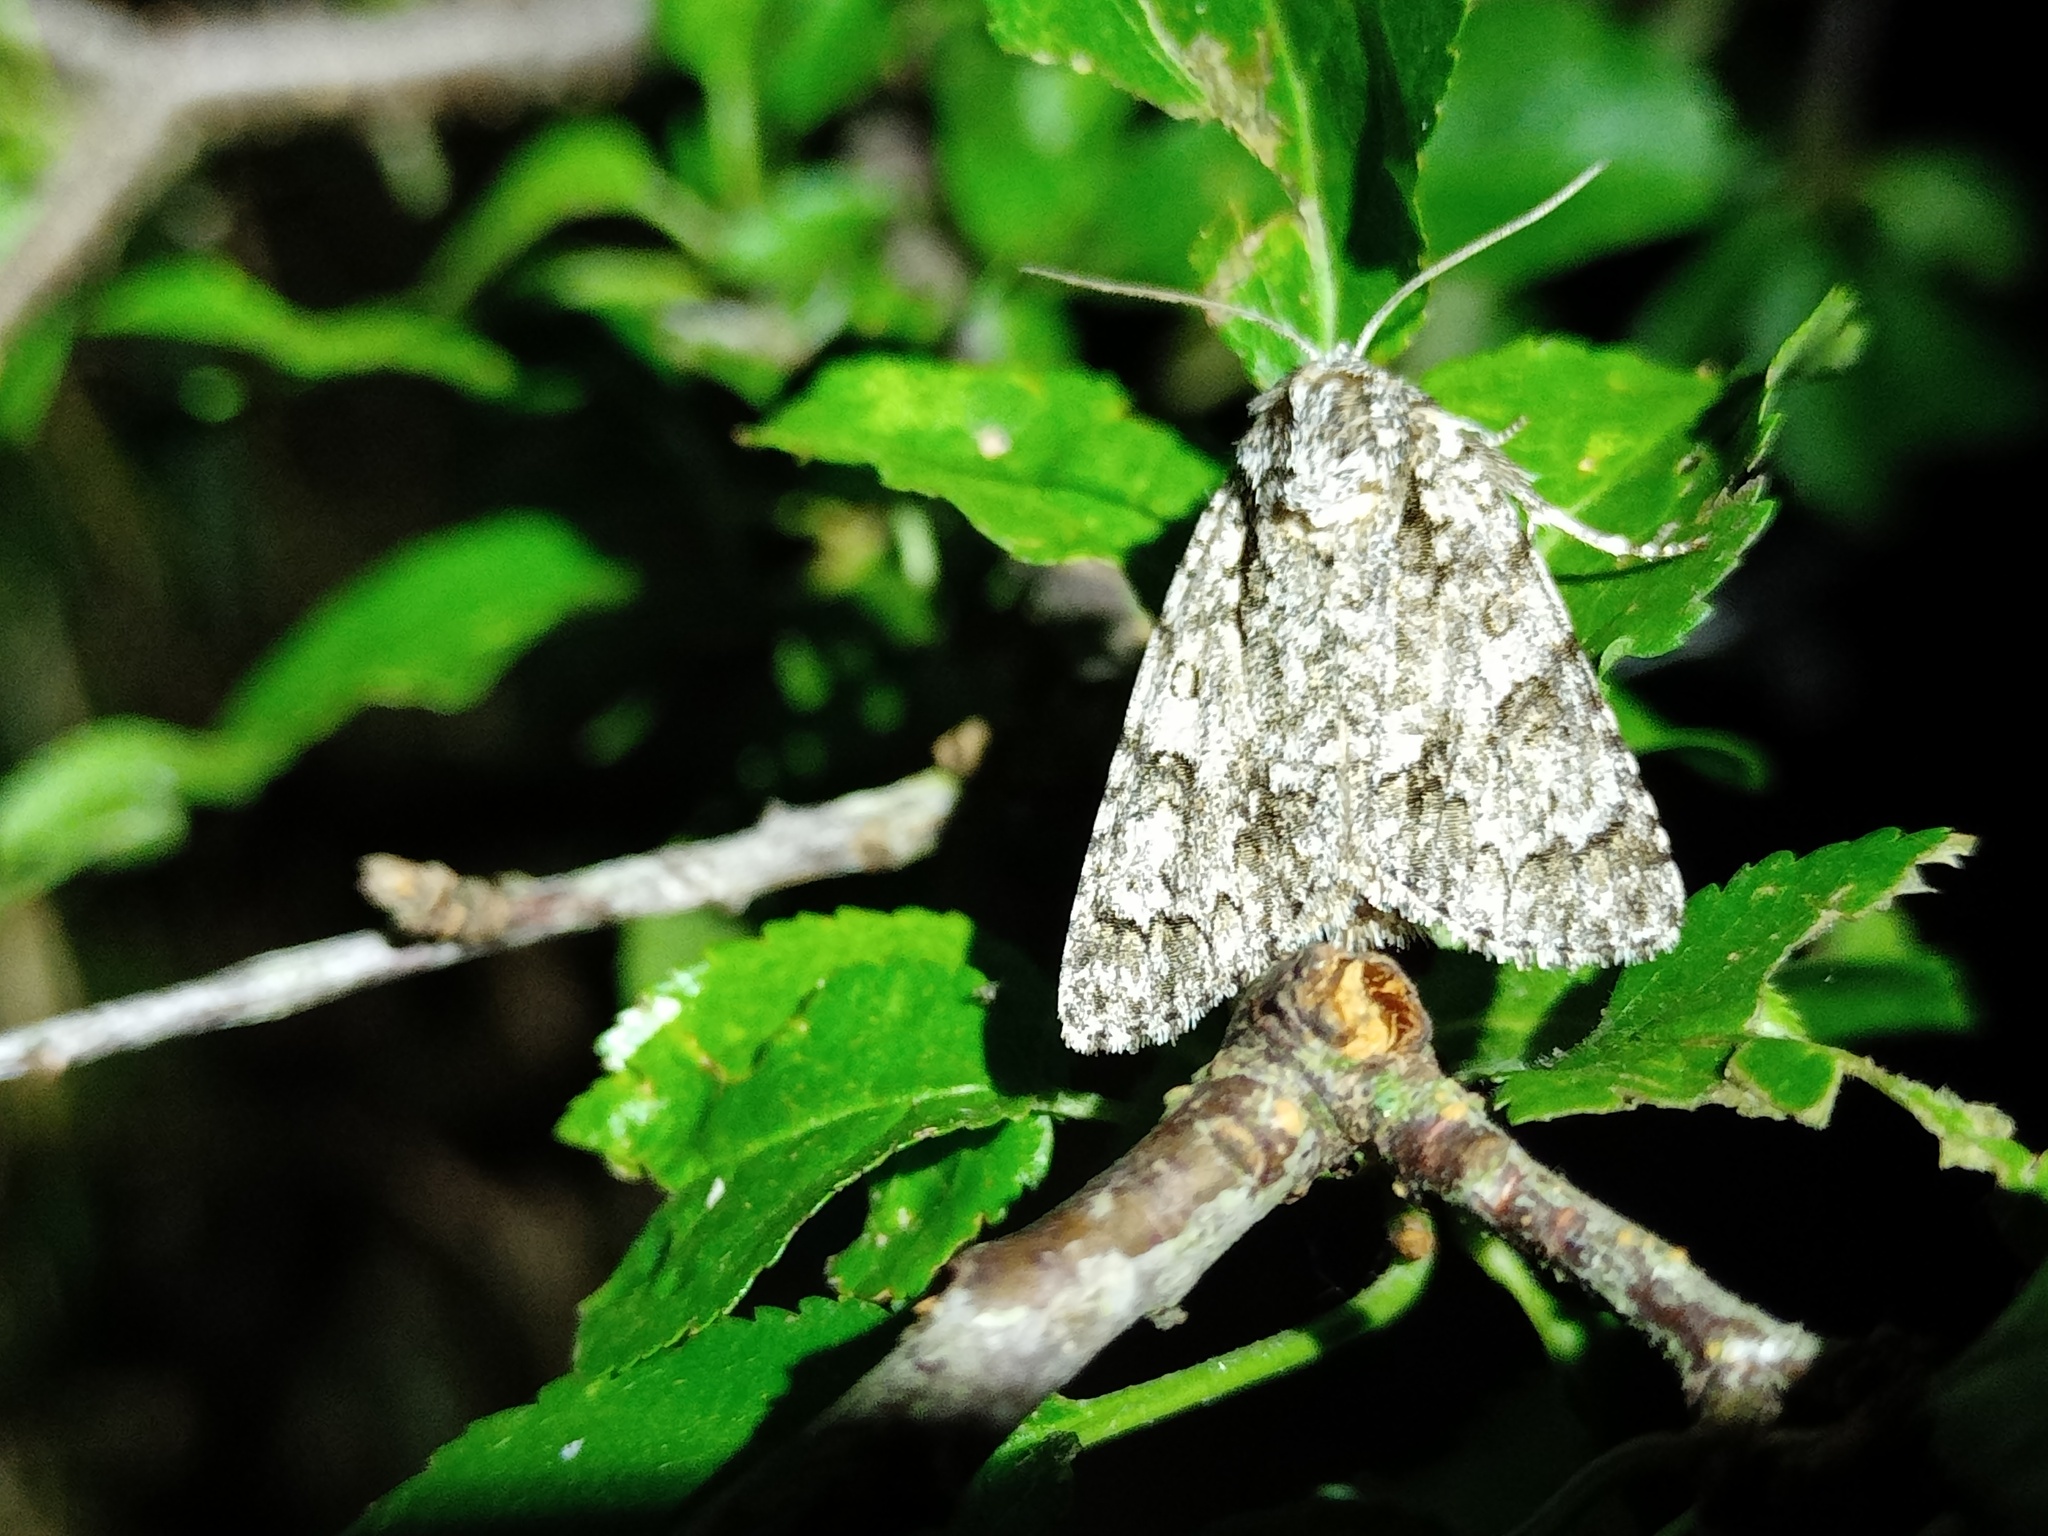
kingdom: Animalia
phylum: Arthropoda
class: Insecta
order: Lepidoptera
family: Noctuidae
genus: Acronicta
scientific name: Acronicta auricoma
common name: Scarce dagger
